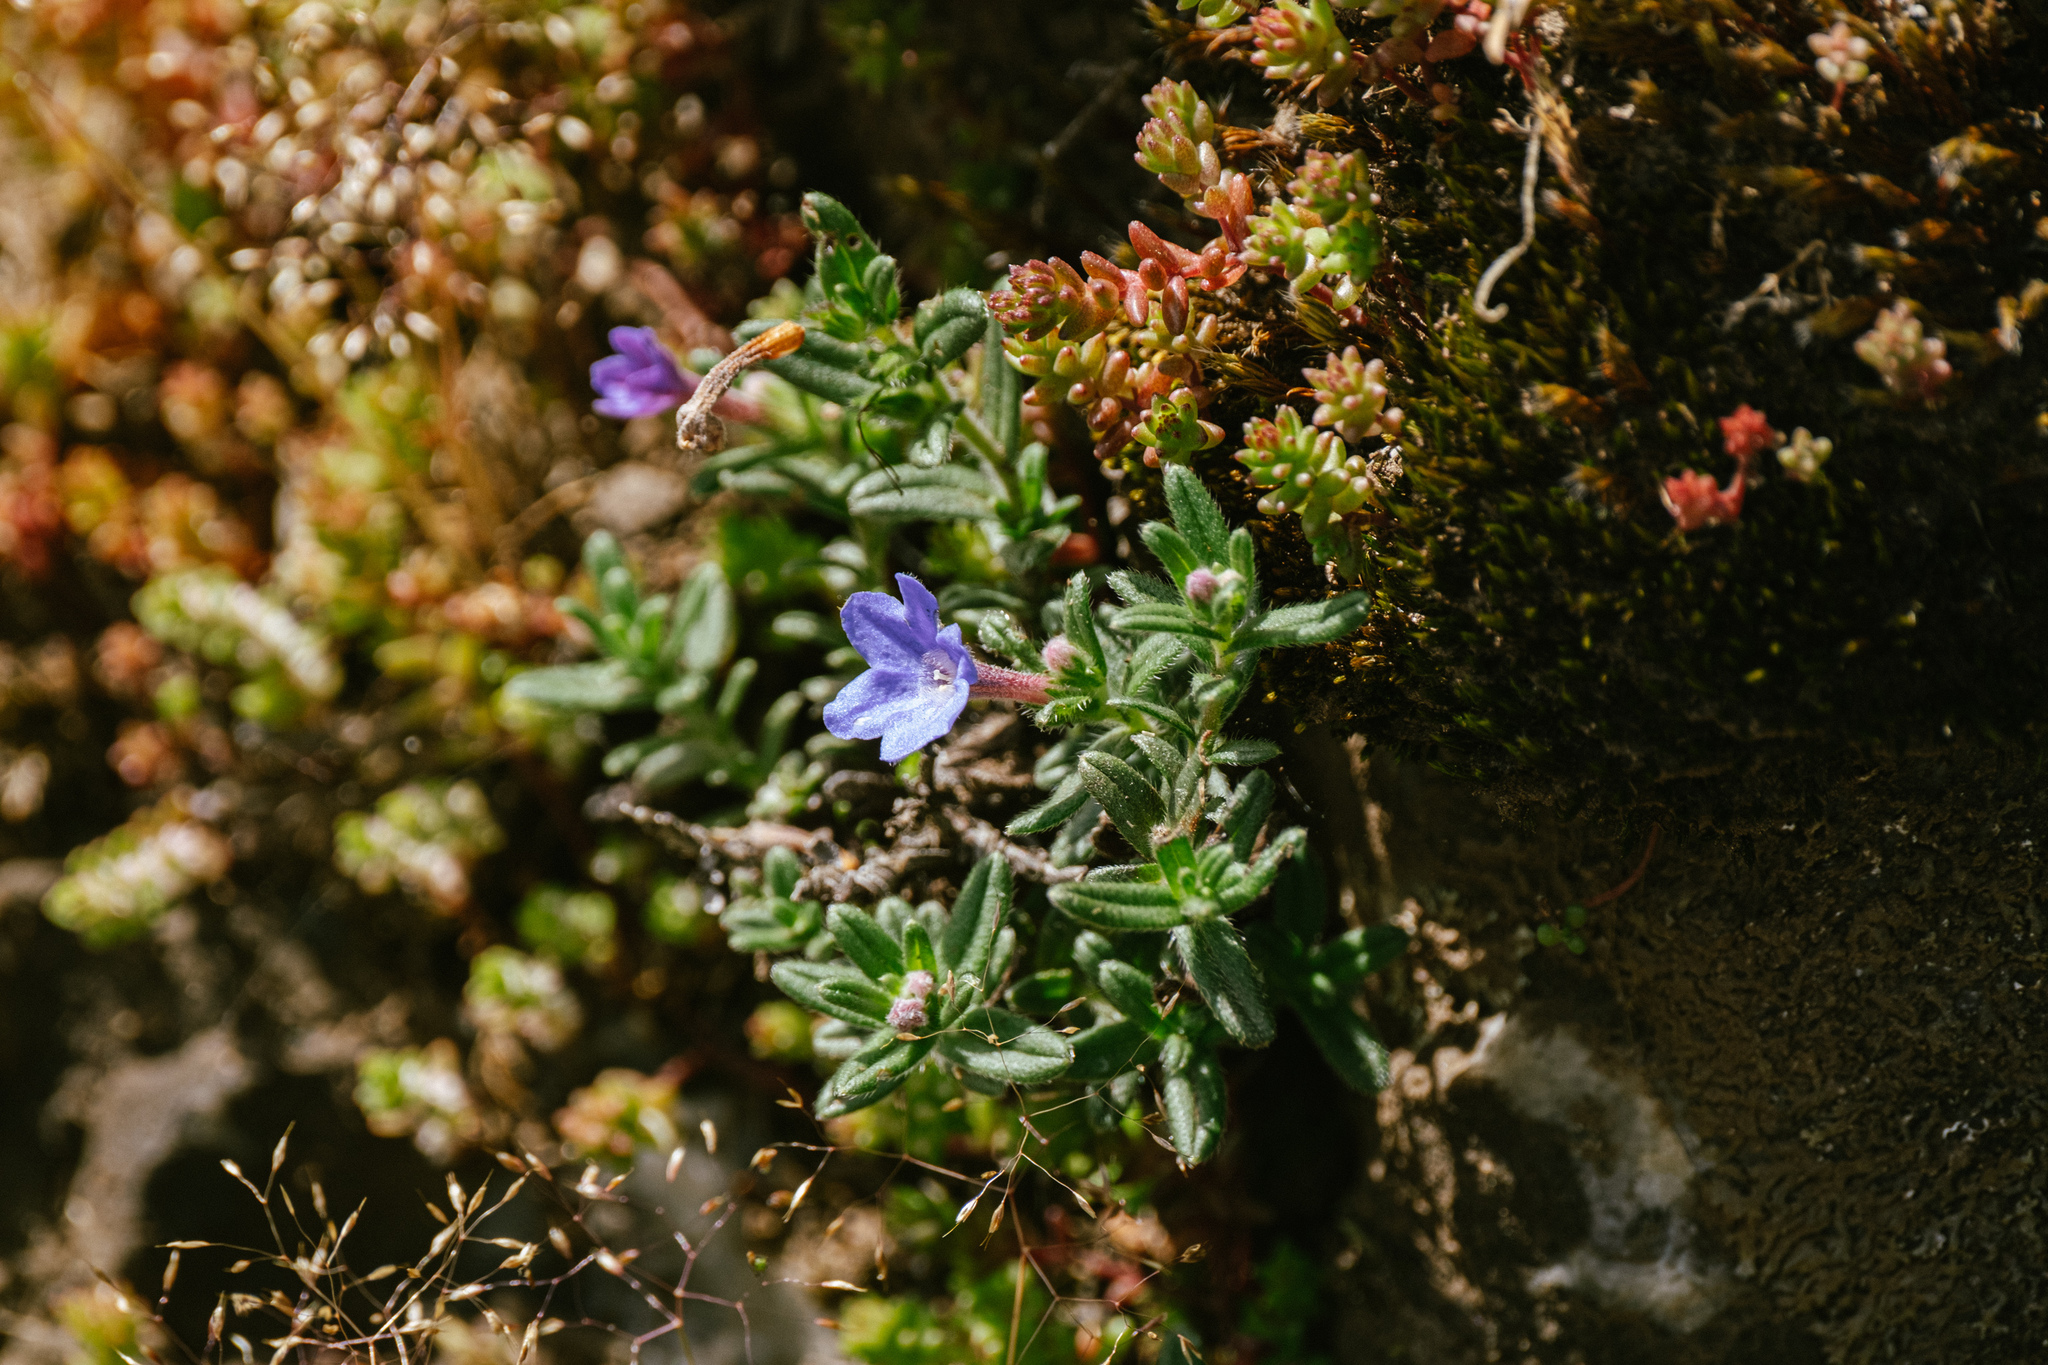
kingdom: Plantae
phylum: Tracheophyta
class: Magnoliopsida
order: Boraginales
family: Boraginaceae
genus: Glandora
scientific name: Glandora prostrata
